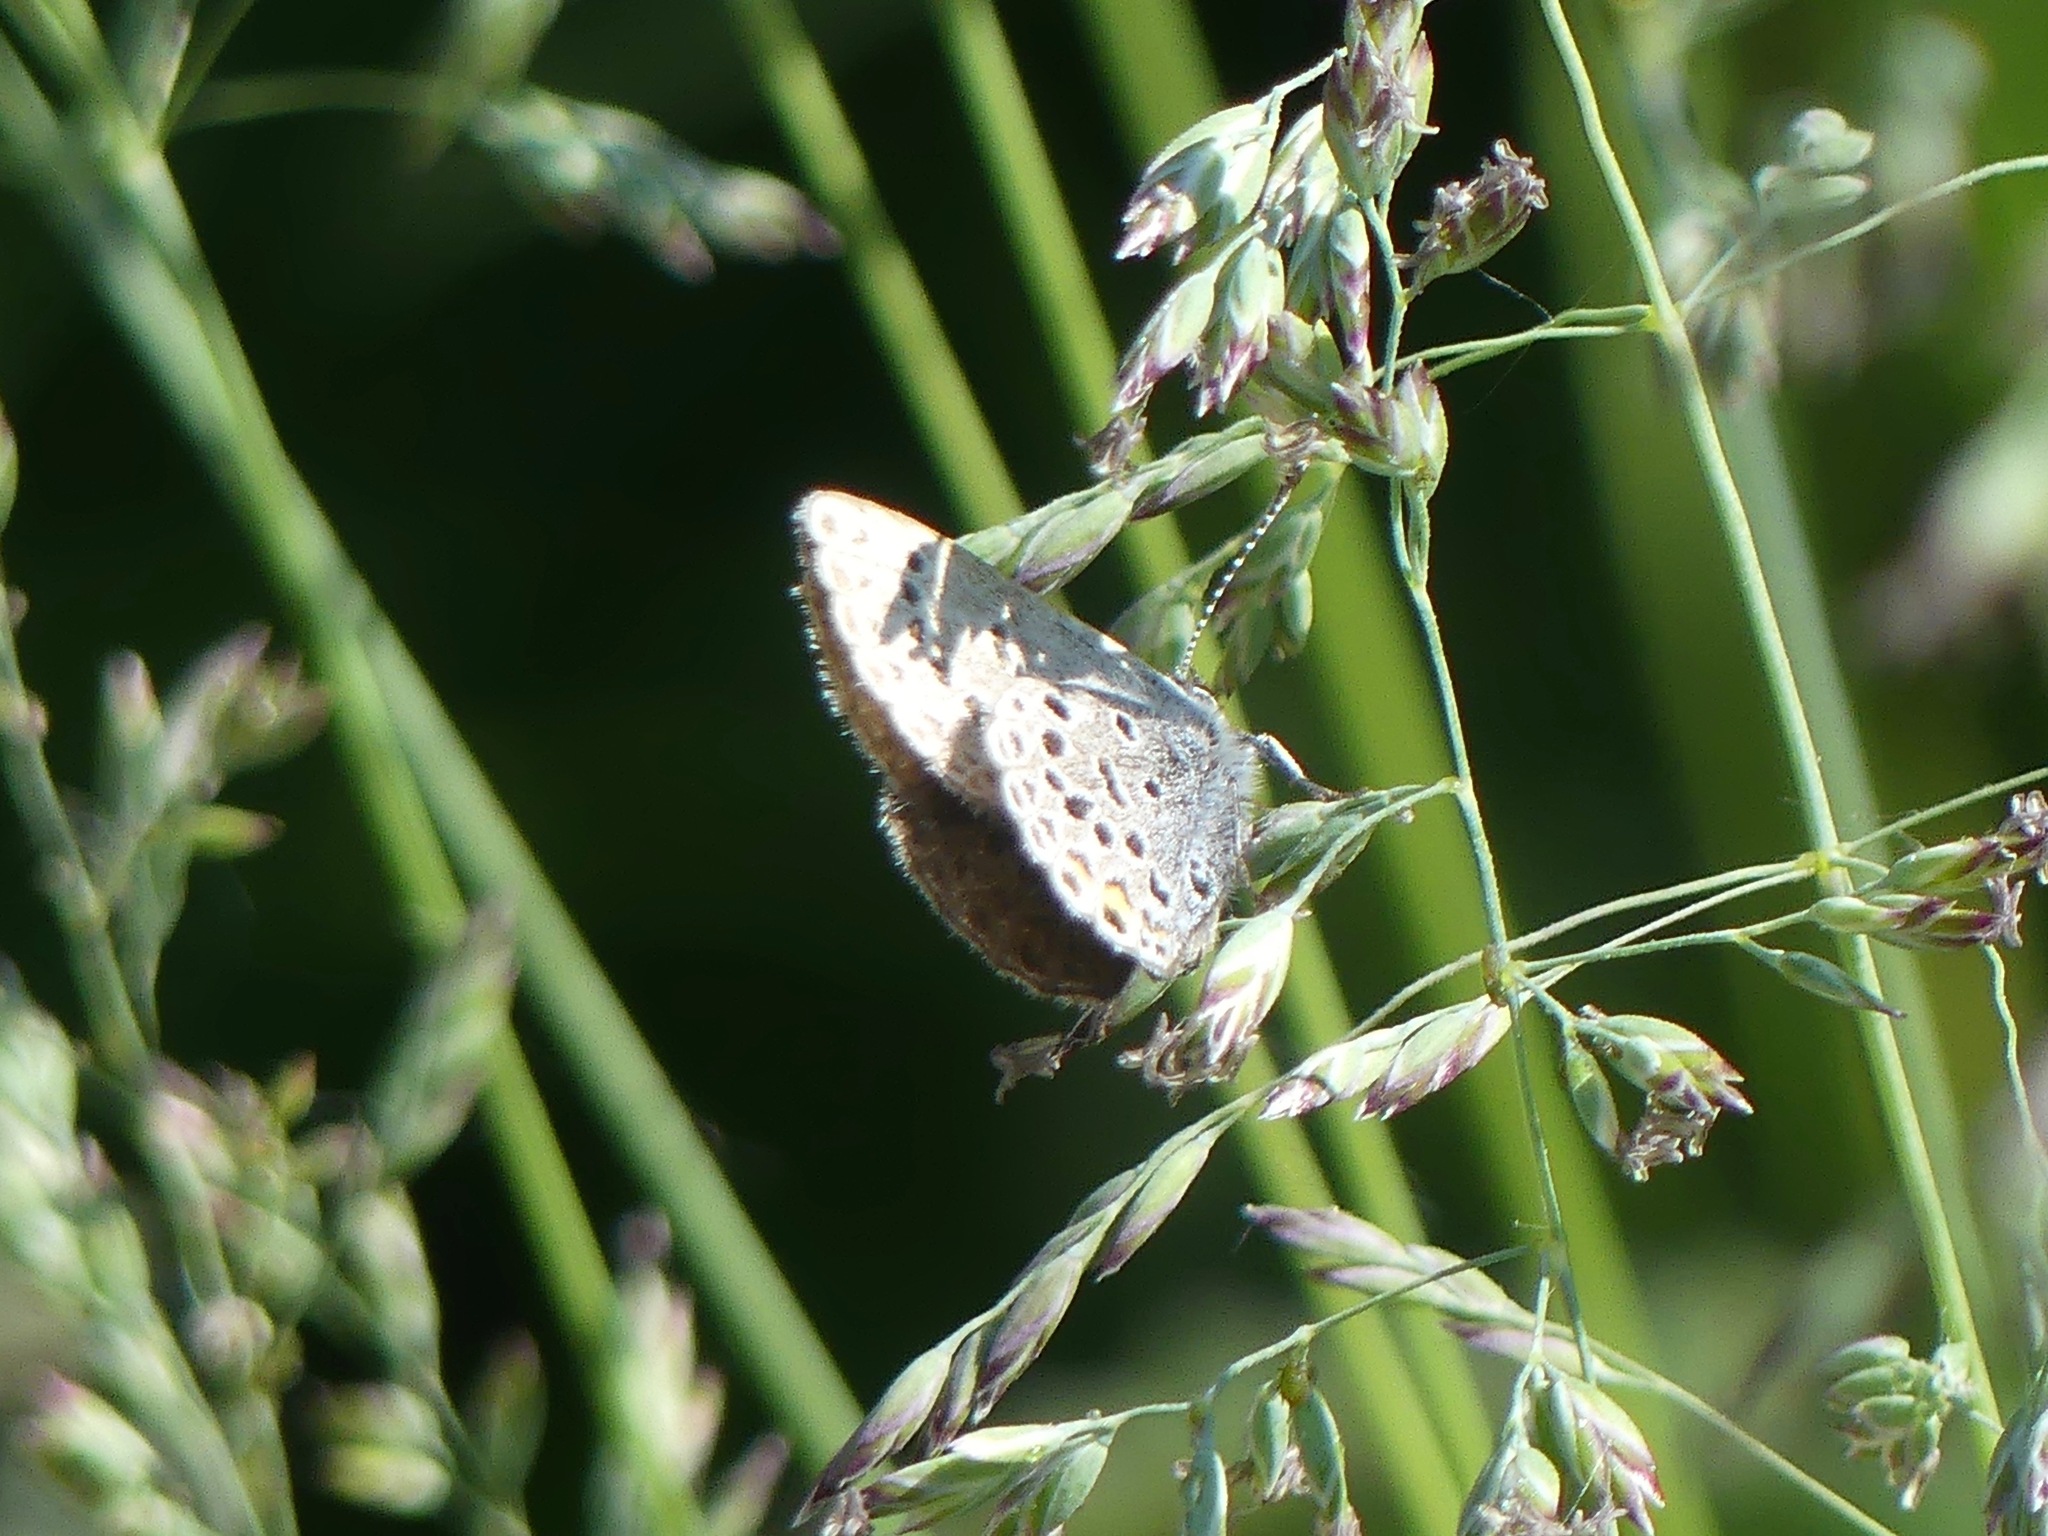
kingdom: Animalia
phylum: Arthropoda
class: Insecta
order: Lepidoptera
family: Lycaenidae
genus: Vacciniina
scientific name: Vacciniina optilete
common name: Cranberry blue
